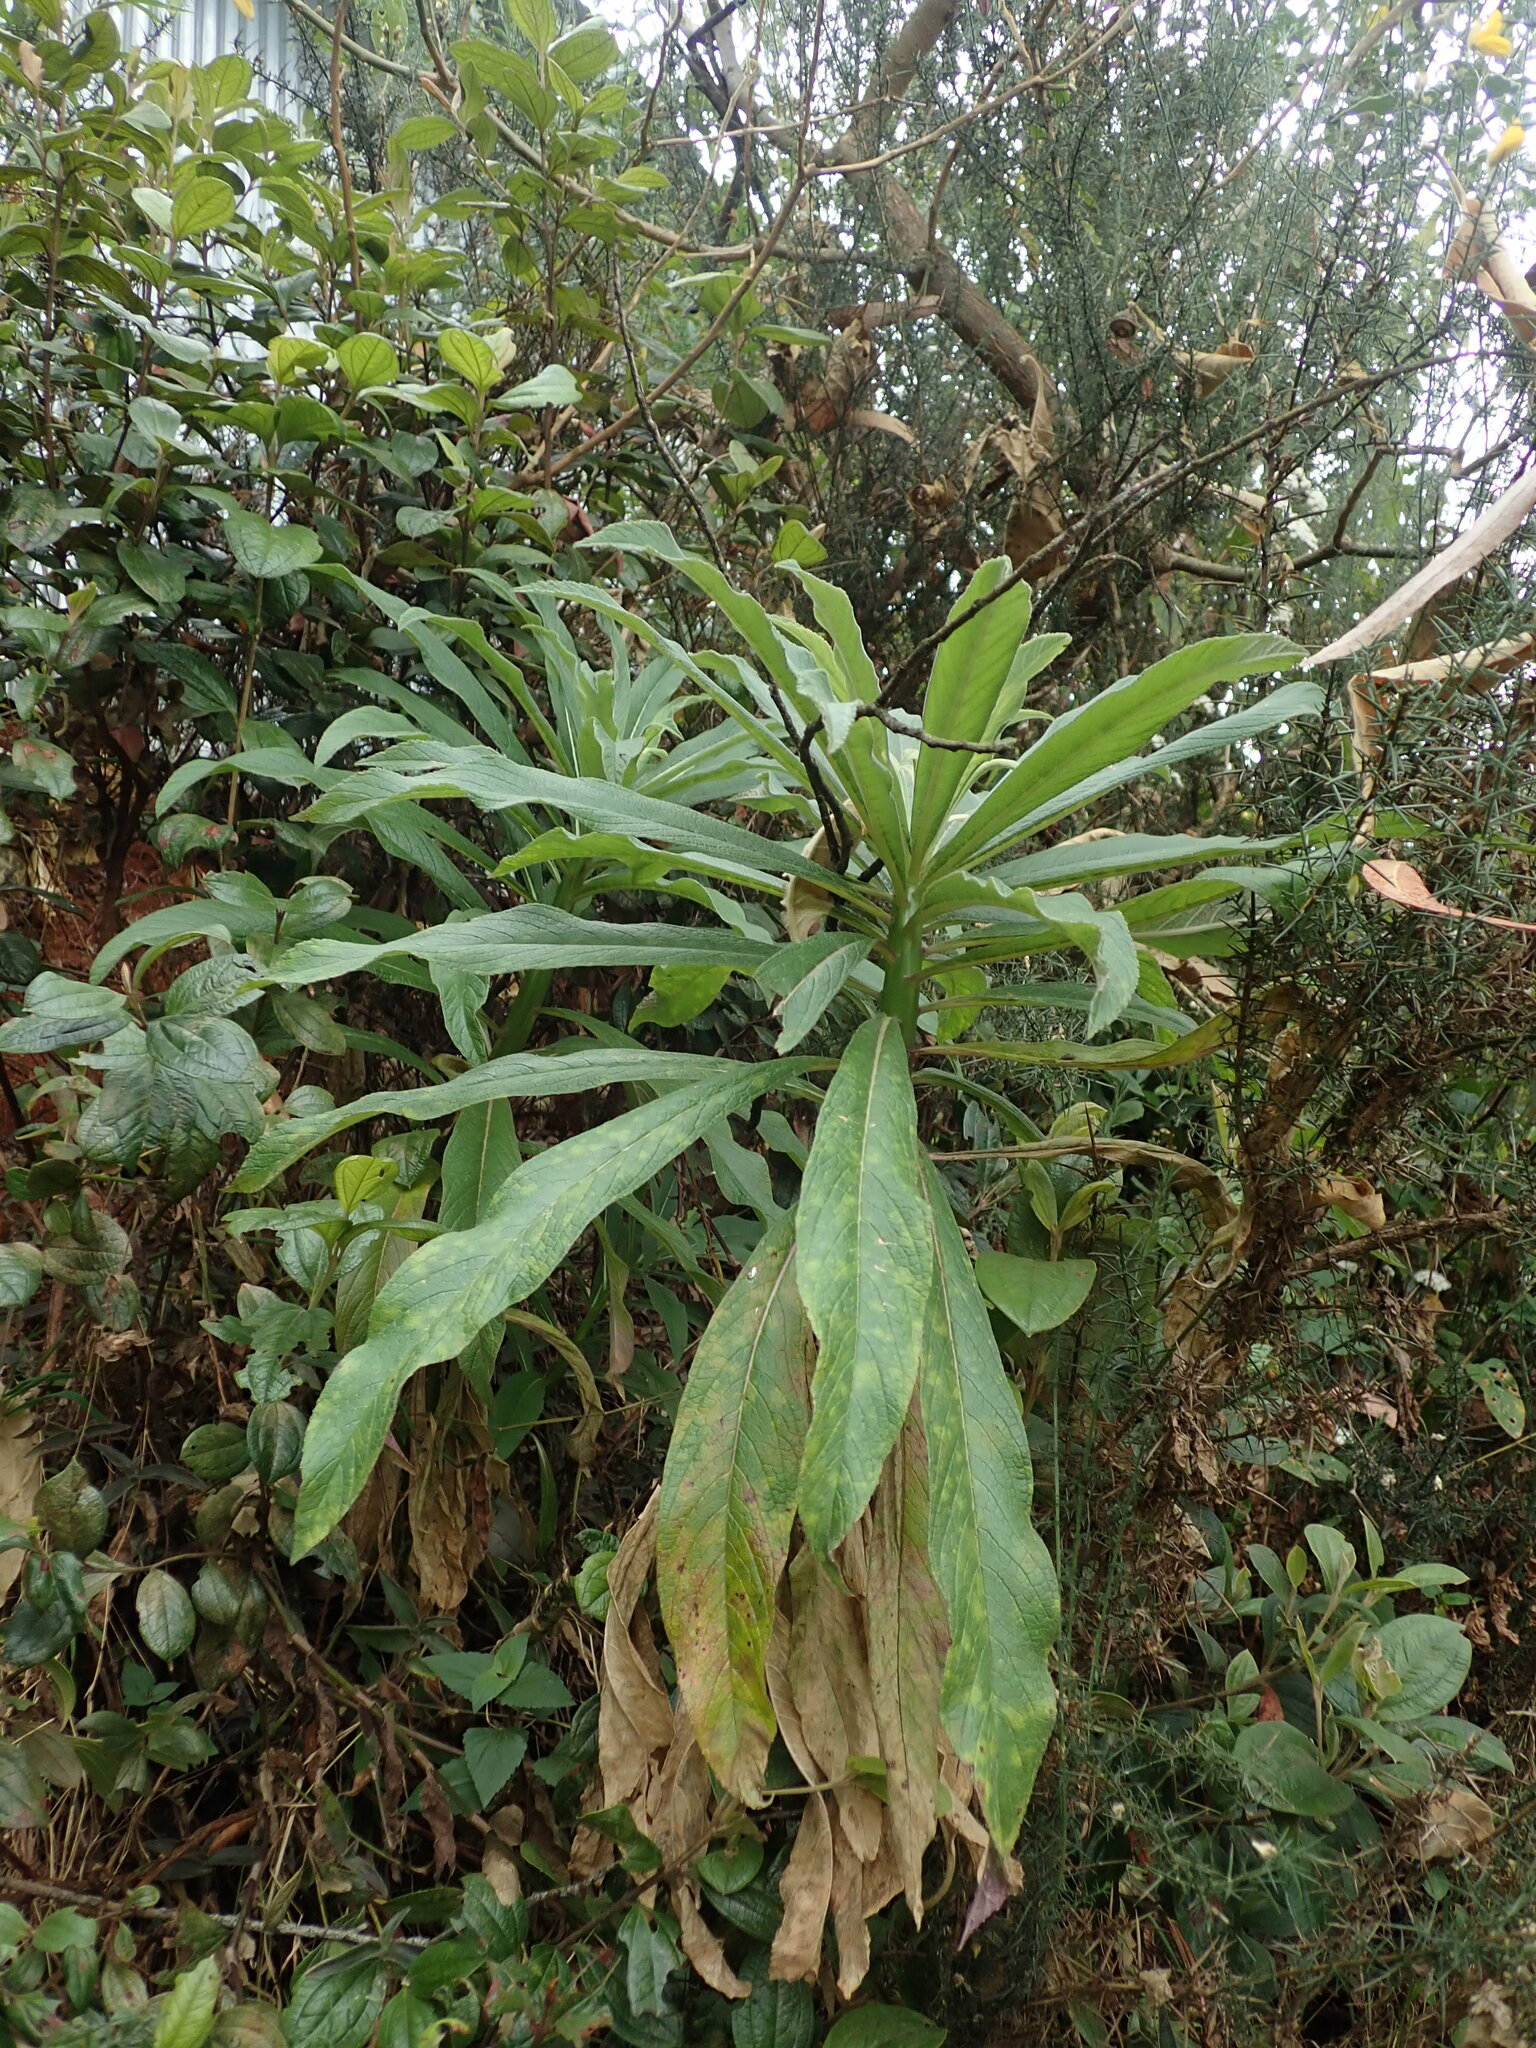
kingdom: Plantae
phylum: Tracheophyta
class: Magnoliopsida
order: Asterales
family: Campanulaceae
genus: Lobelia
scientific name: Lobelia leschenaultiana
